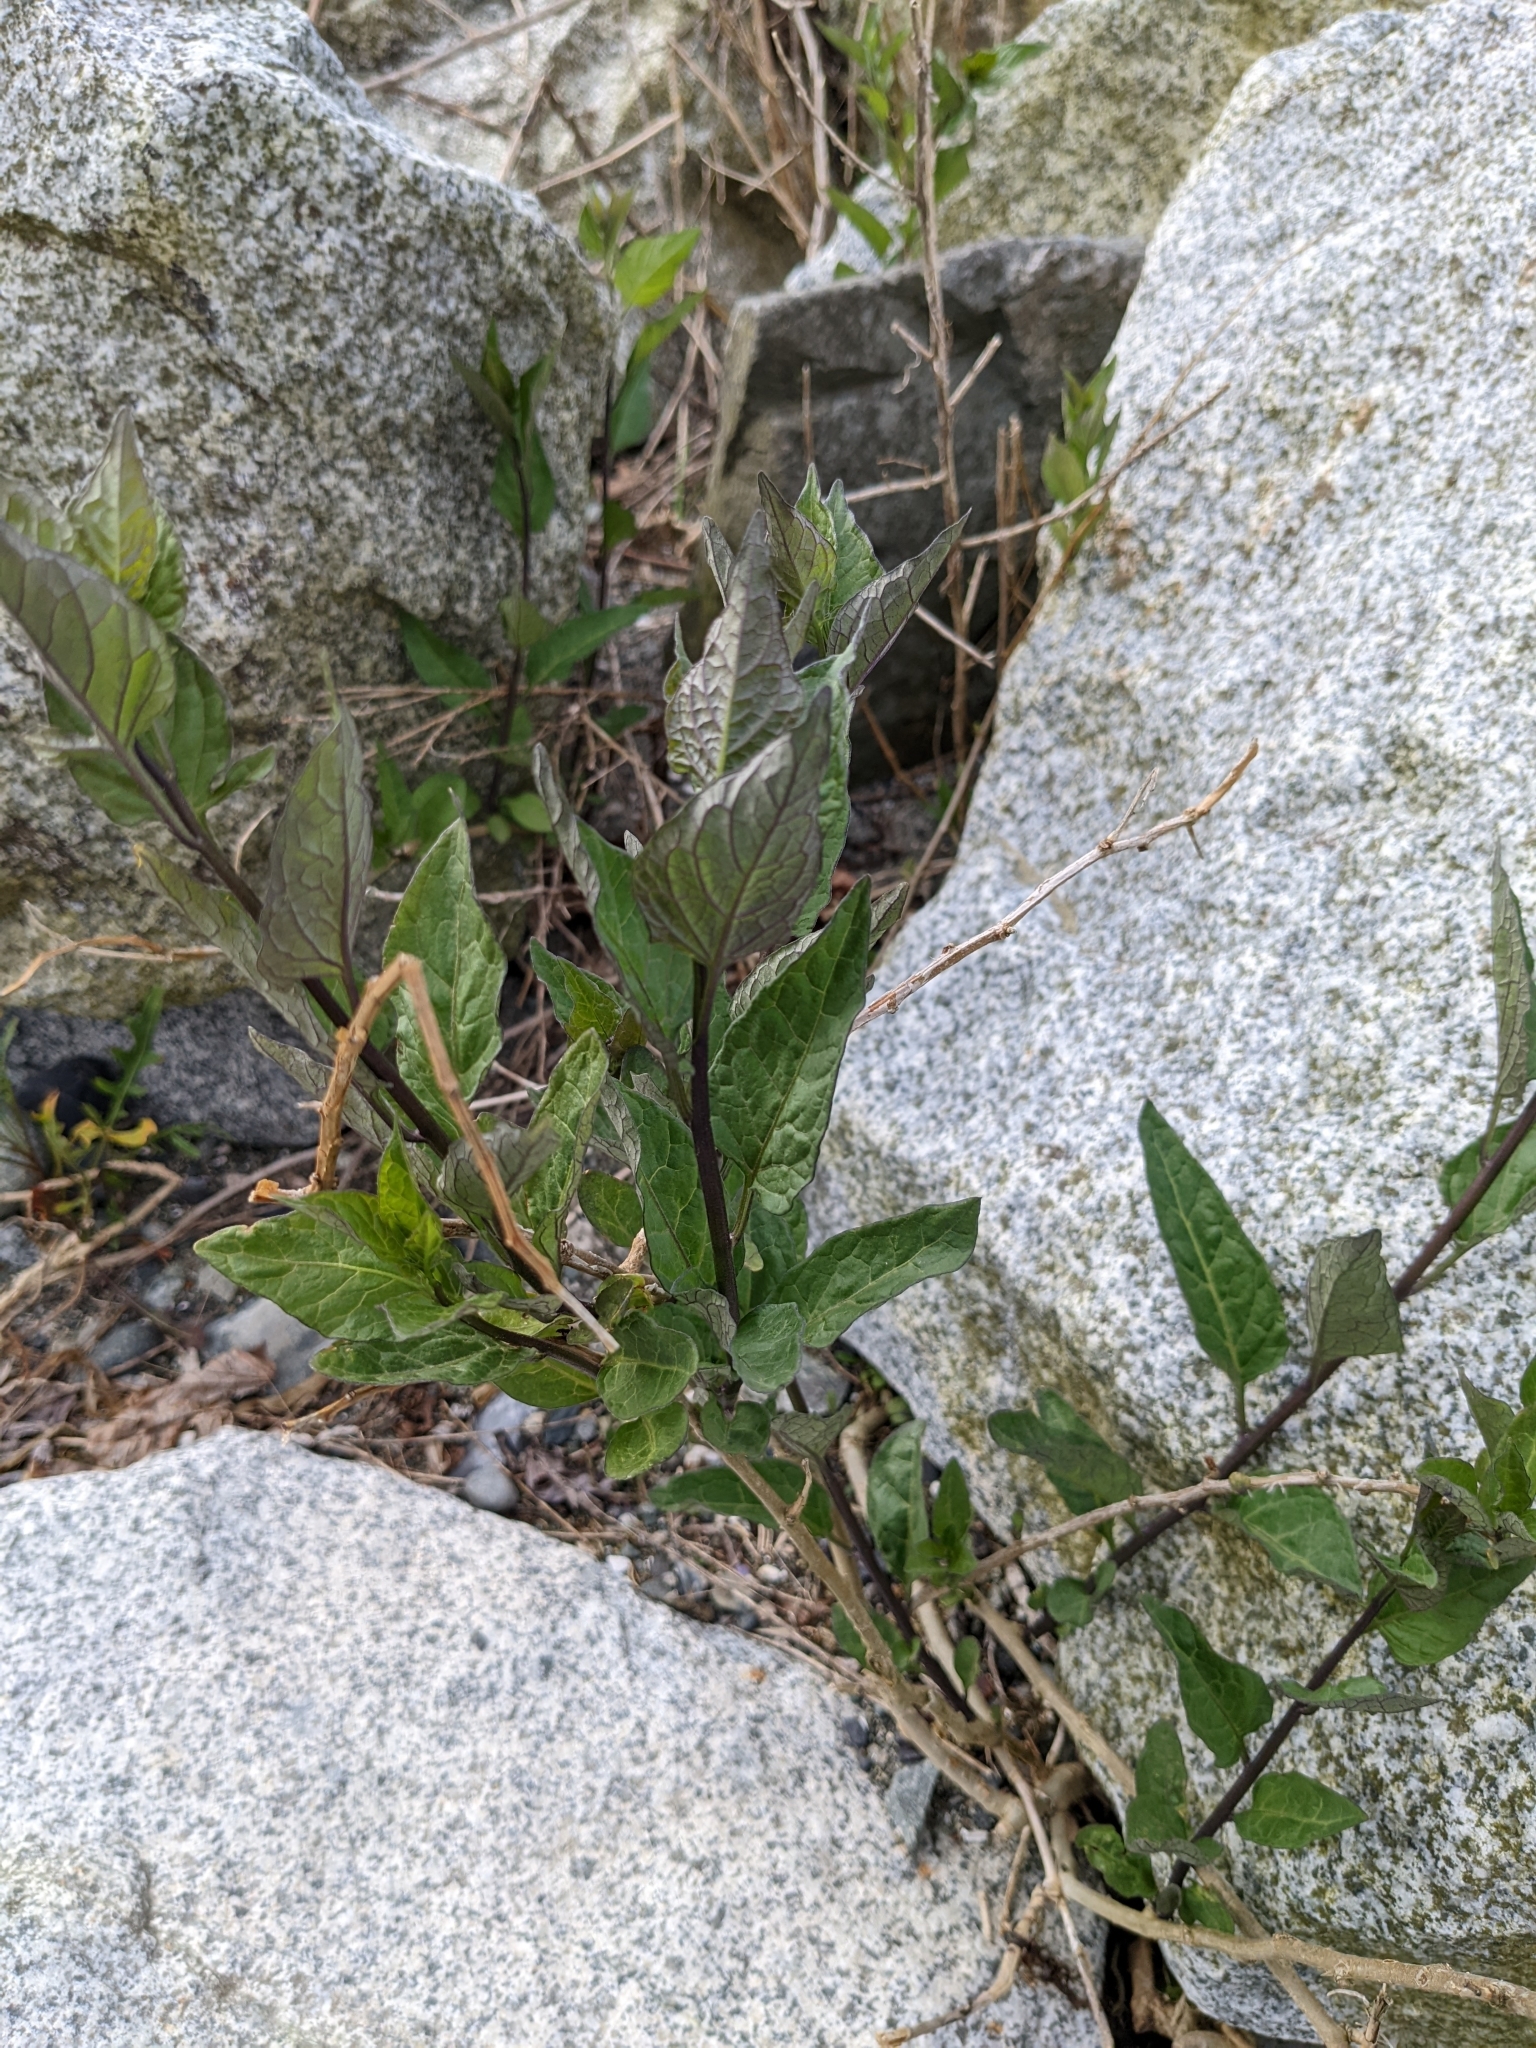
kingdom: Plantae
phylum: Tracheophyta
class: Magnoliopsida
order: Solanales
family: Solanaceae
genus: Solanum
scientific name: Solanum dulcamara
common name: Climbing nightshade
